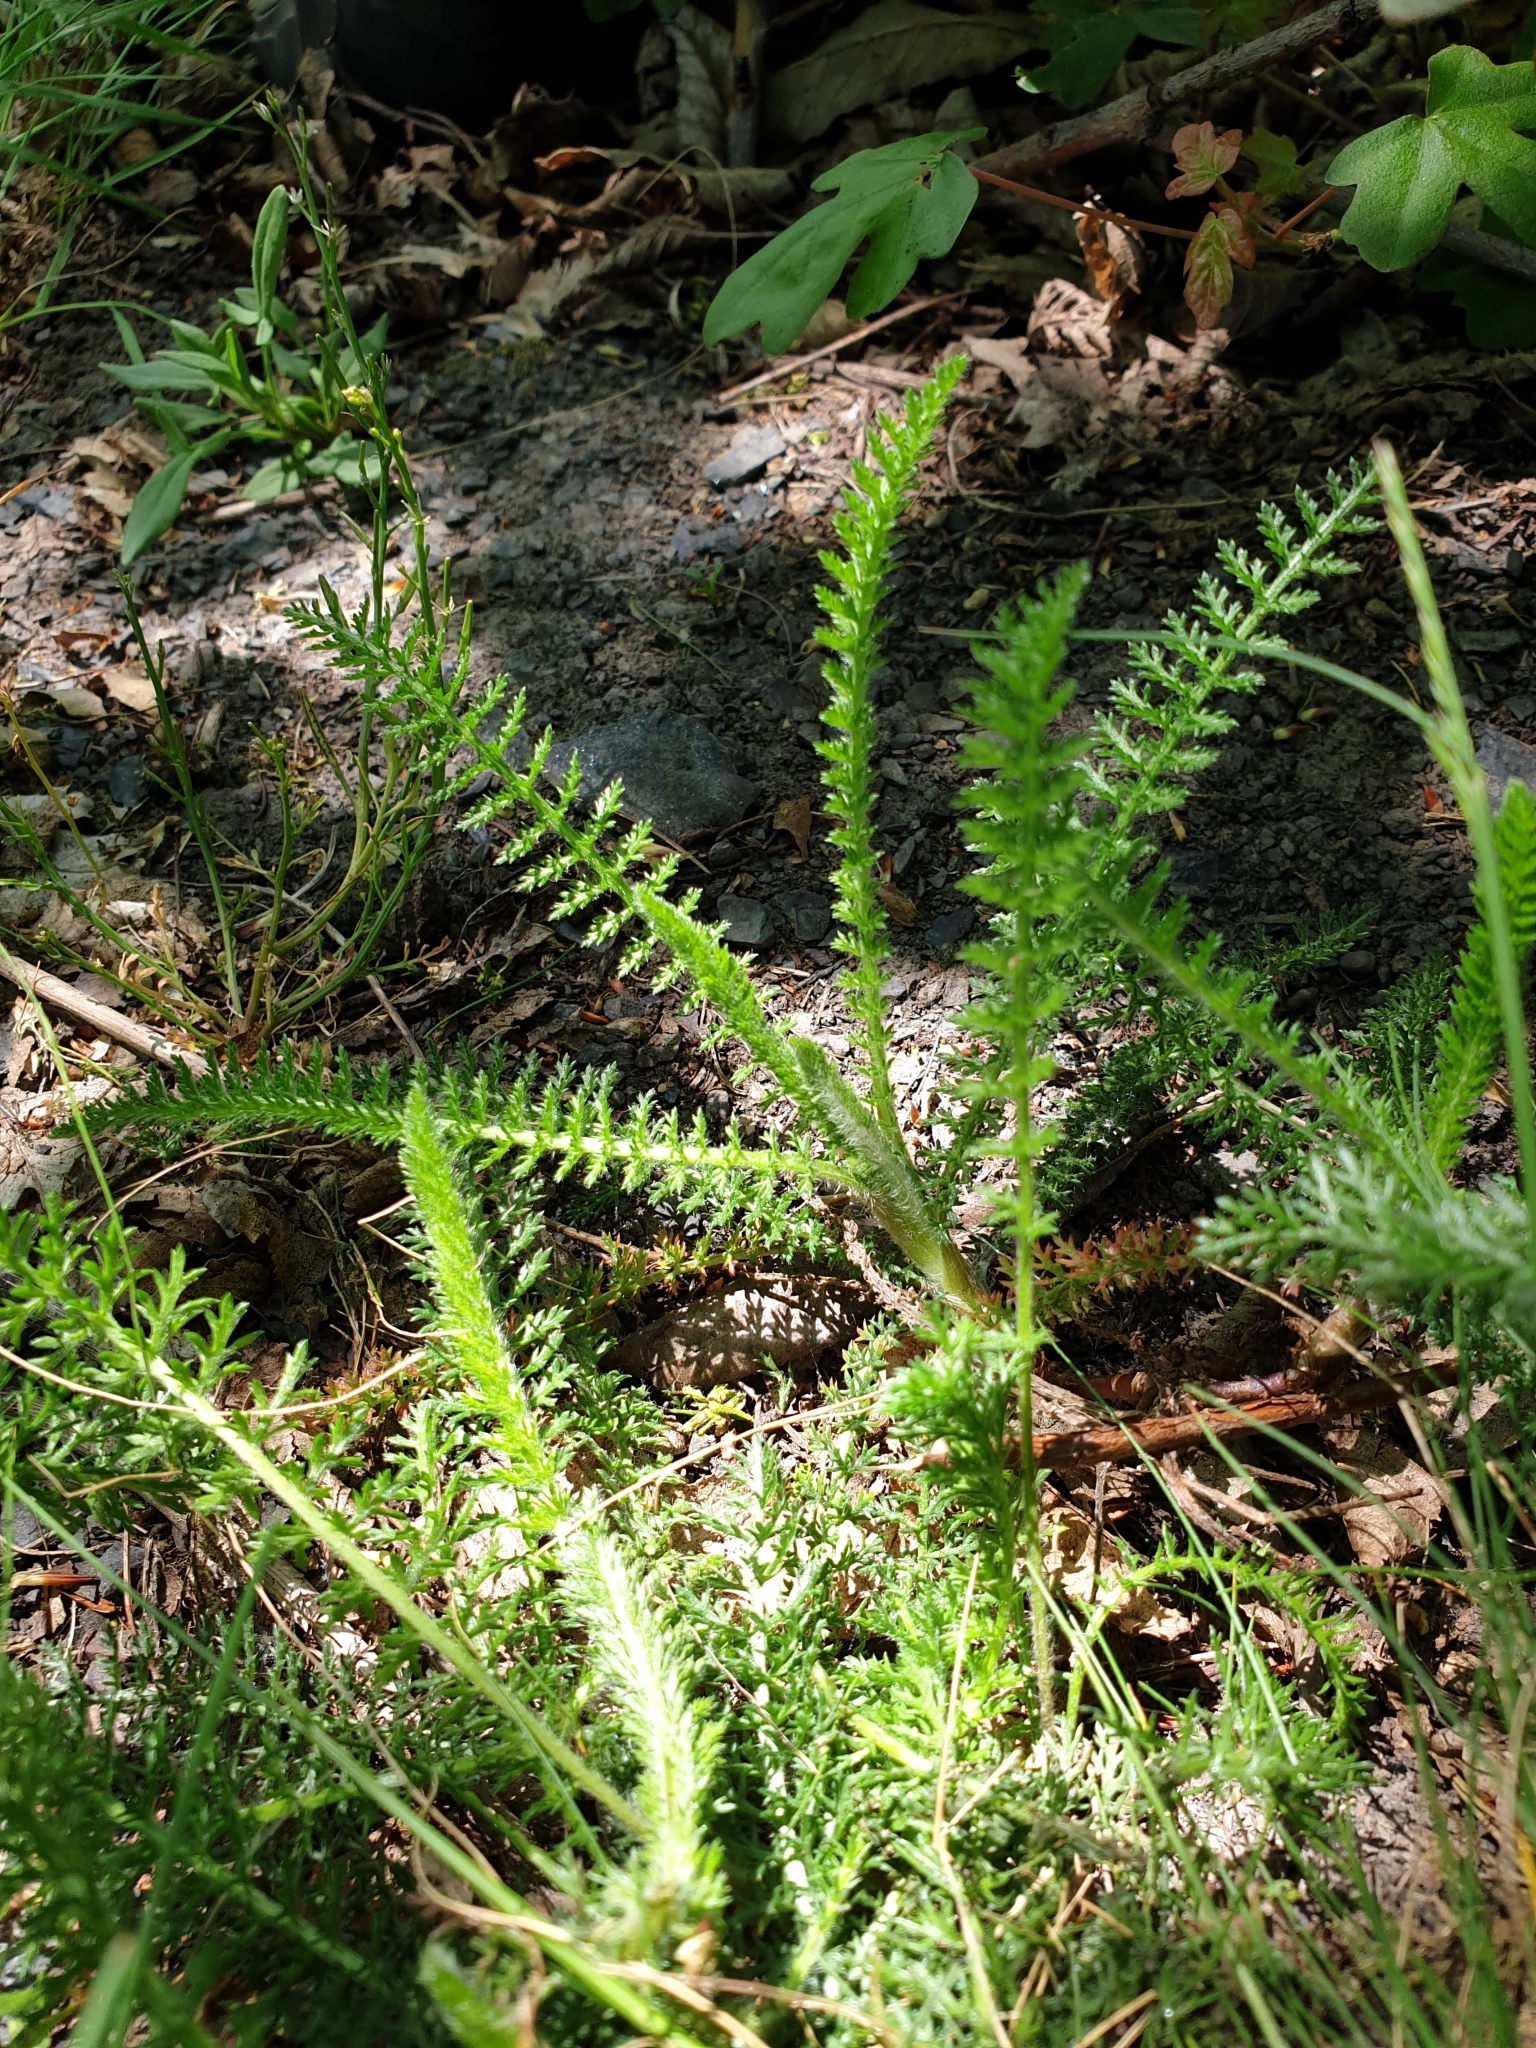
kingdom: Plantae
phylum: Tracheophyta
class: Magnoliopsida
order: Asterales
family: Asteraceae
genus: Achillea
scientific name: Achillea millefolium
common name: Yarrow
